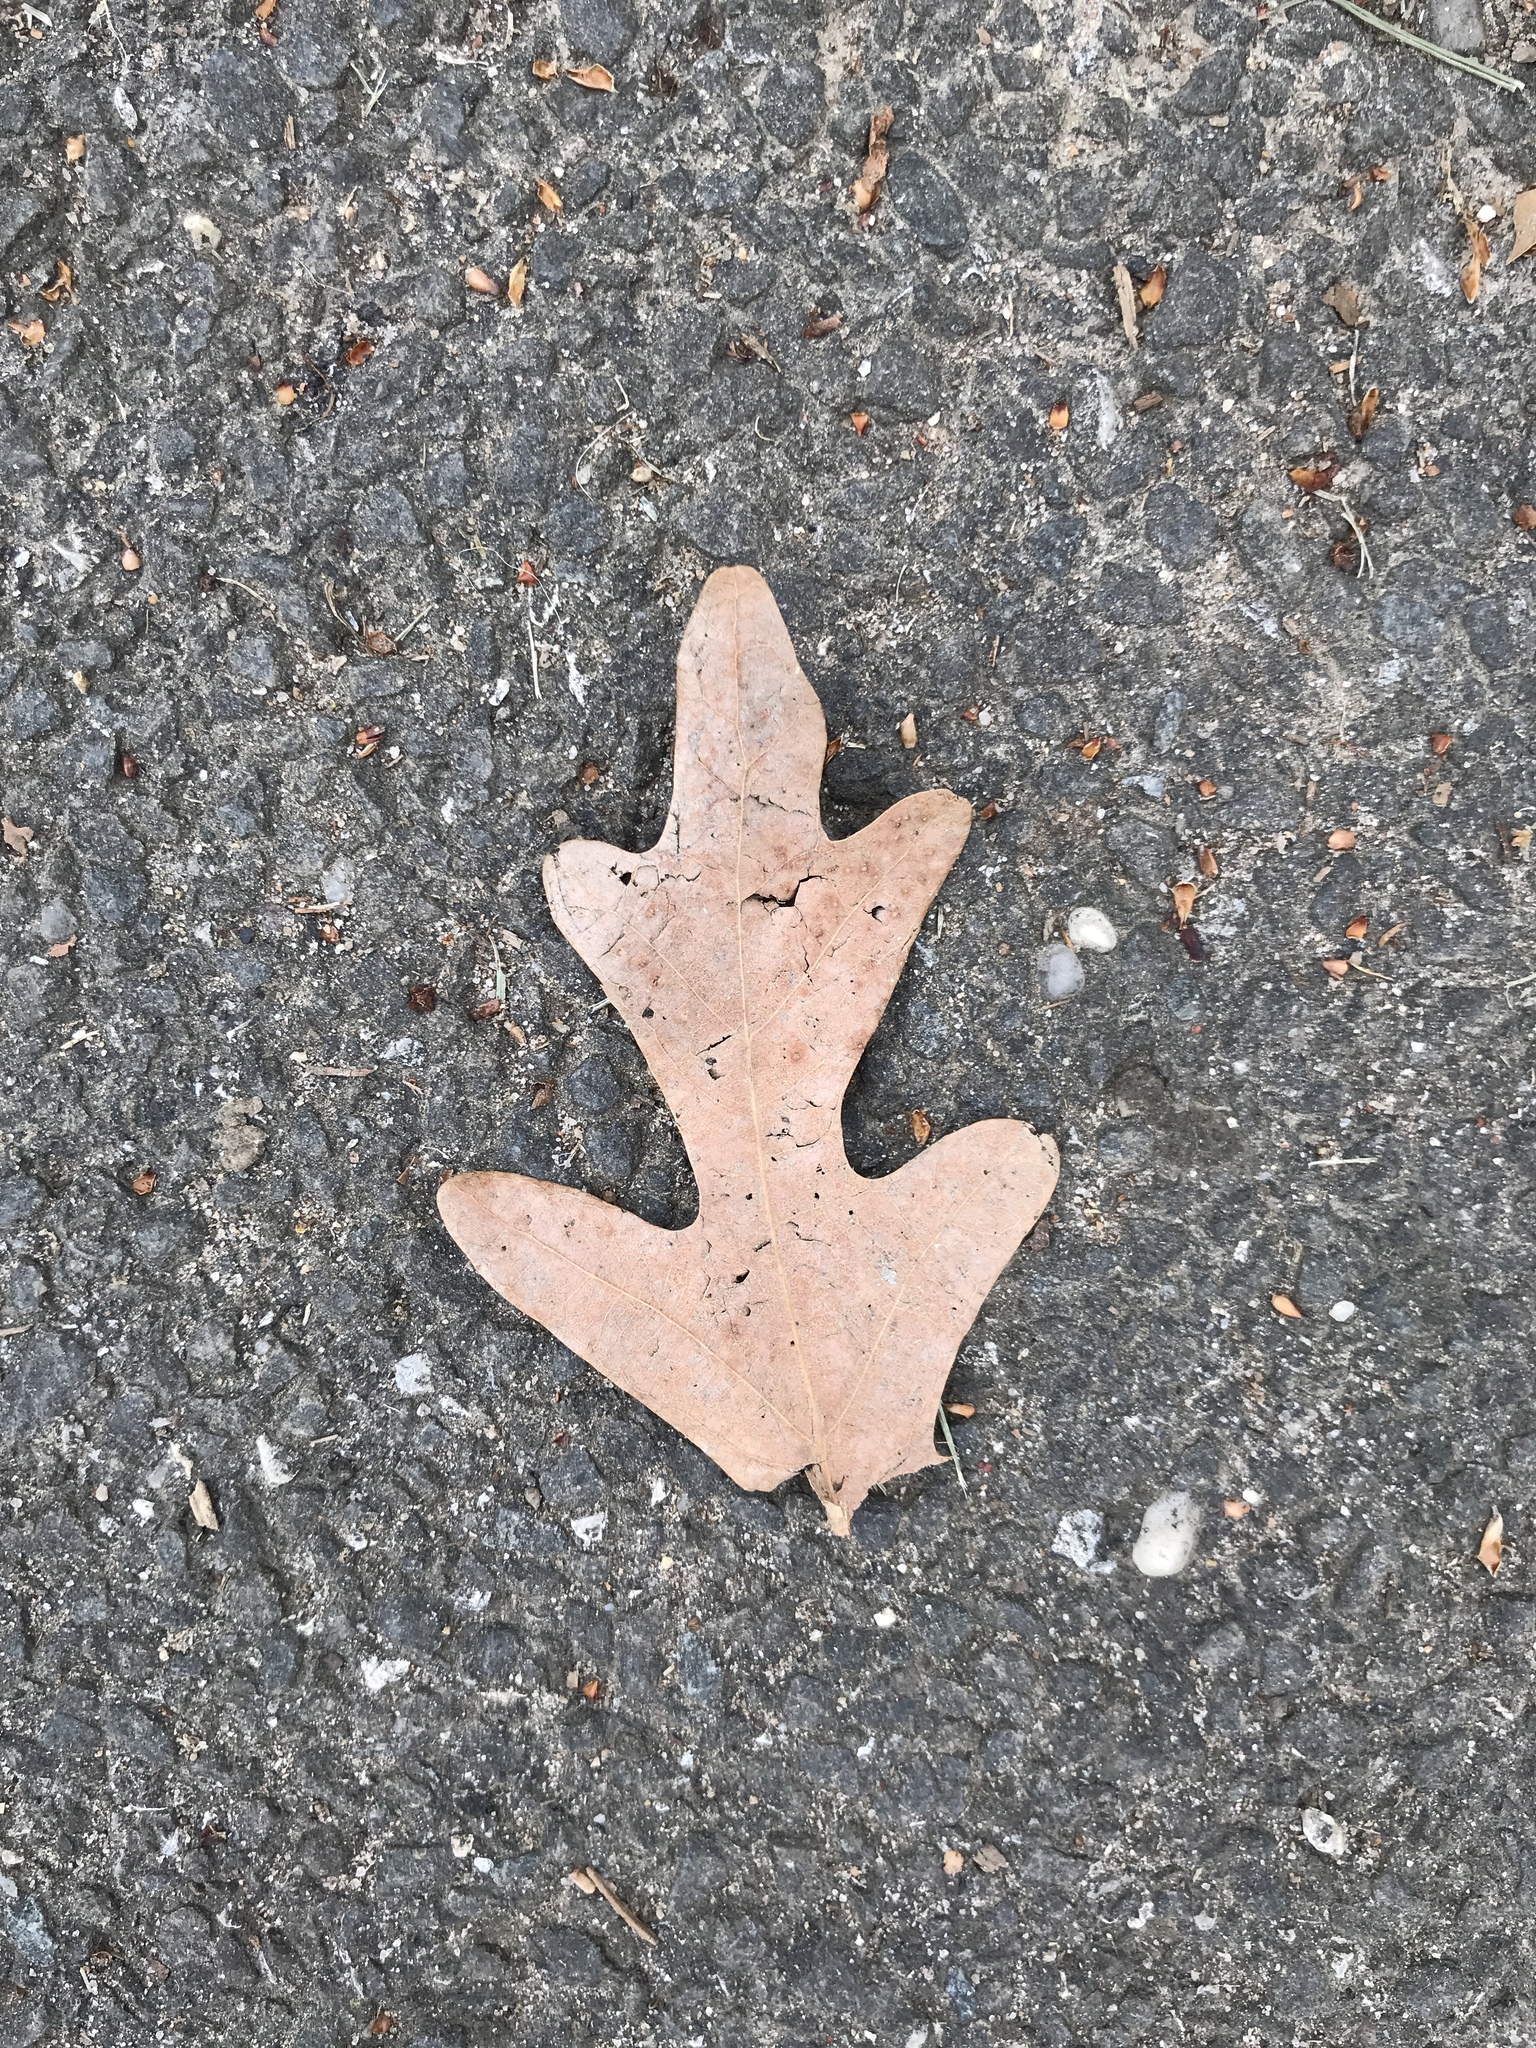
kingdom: Plantae
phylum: Tracheophyta
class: Magnoliopsida
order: Fagales
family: Fagaceae
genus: Quercus
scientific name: Quercus alba
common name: White oak
